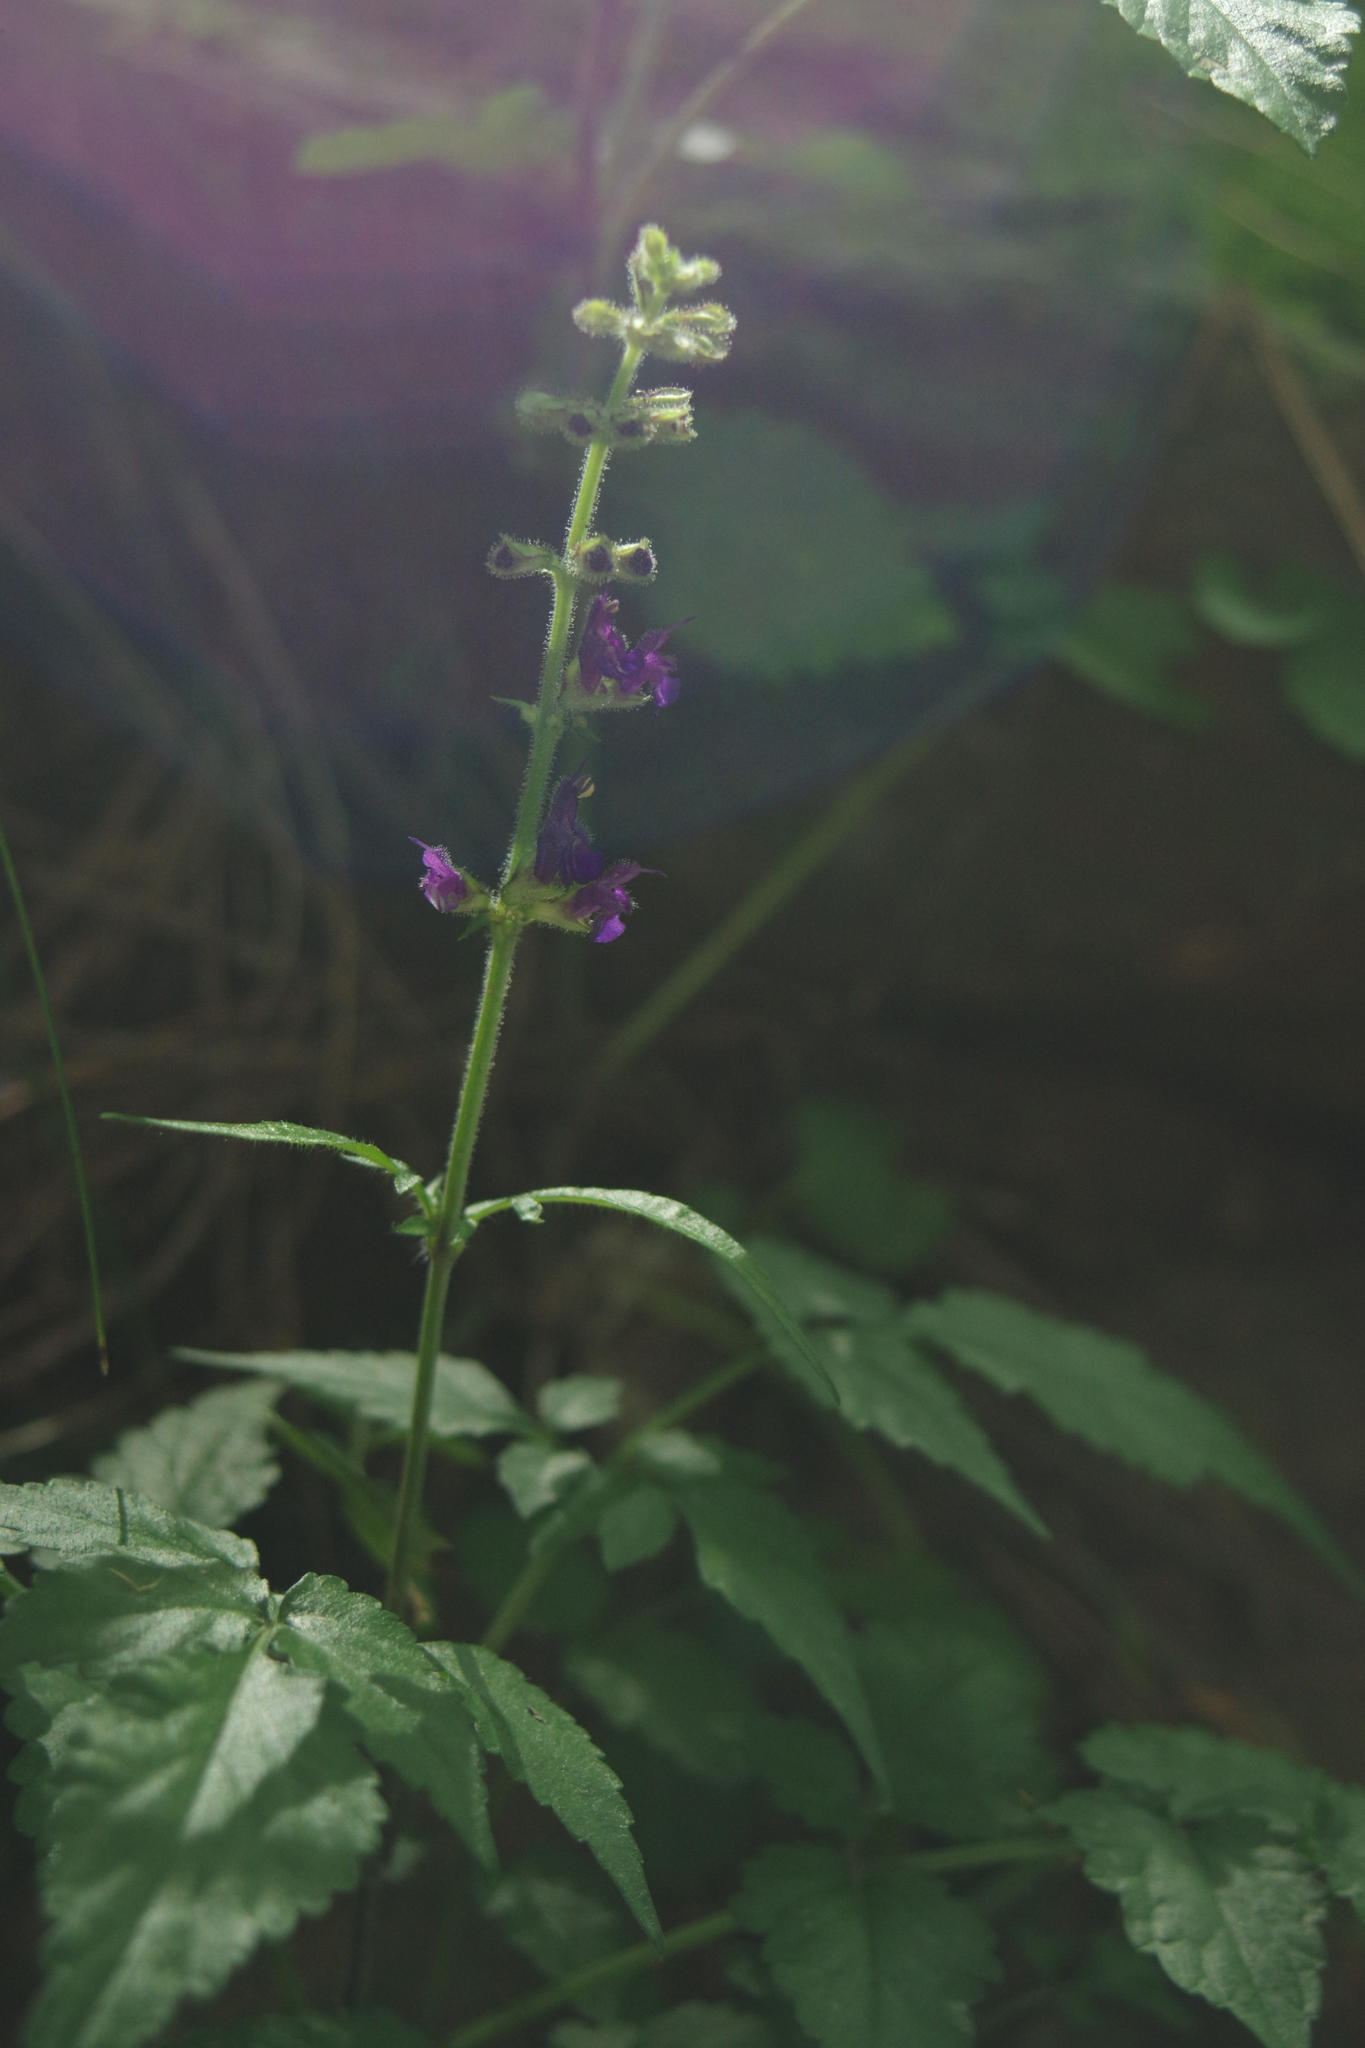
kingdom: Plantae
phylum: Tracheophyta
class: Magnoliopsida
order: Lamiales
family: Lamiaceae
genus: Salvia
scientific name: Salvia
